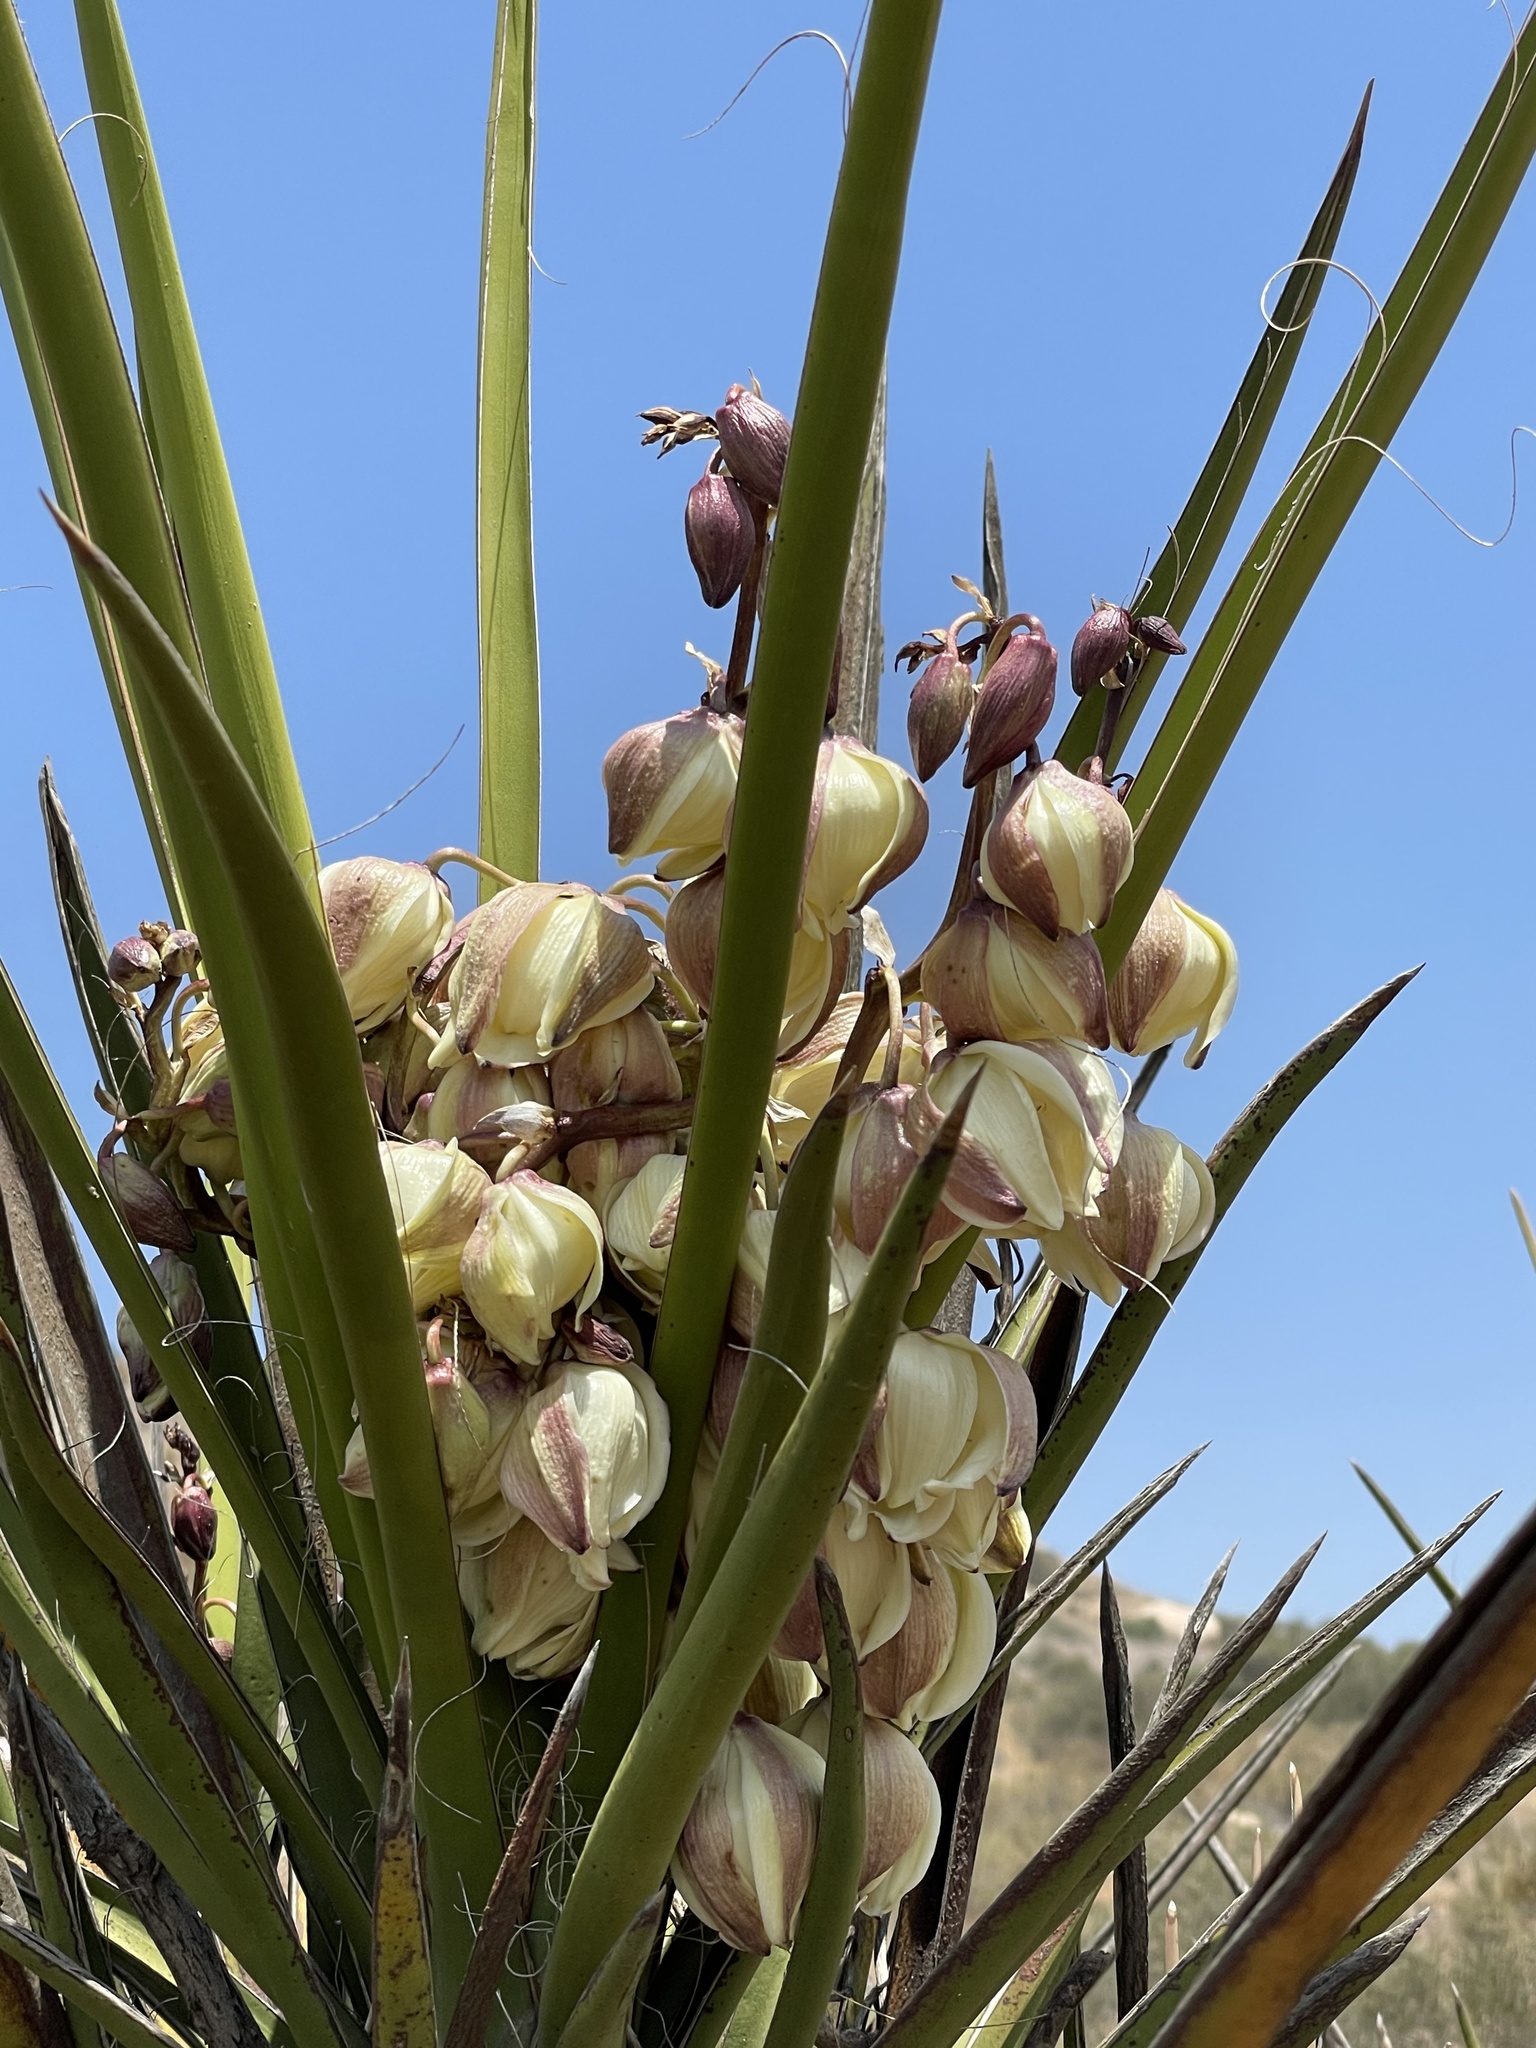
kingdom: Plantae
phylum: Tracheophyta
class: Liliopsida
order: Asparagales
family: Asparagaceae
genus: Yucca
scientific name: Yucca schidigera
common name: Mojave yucca
